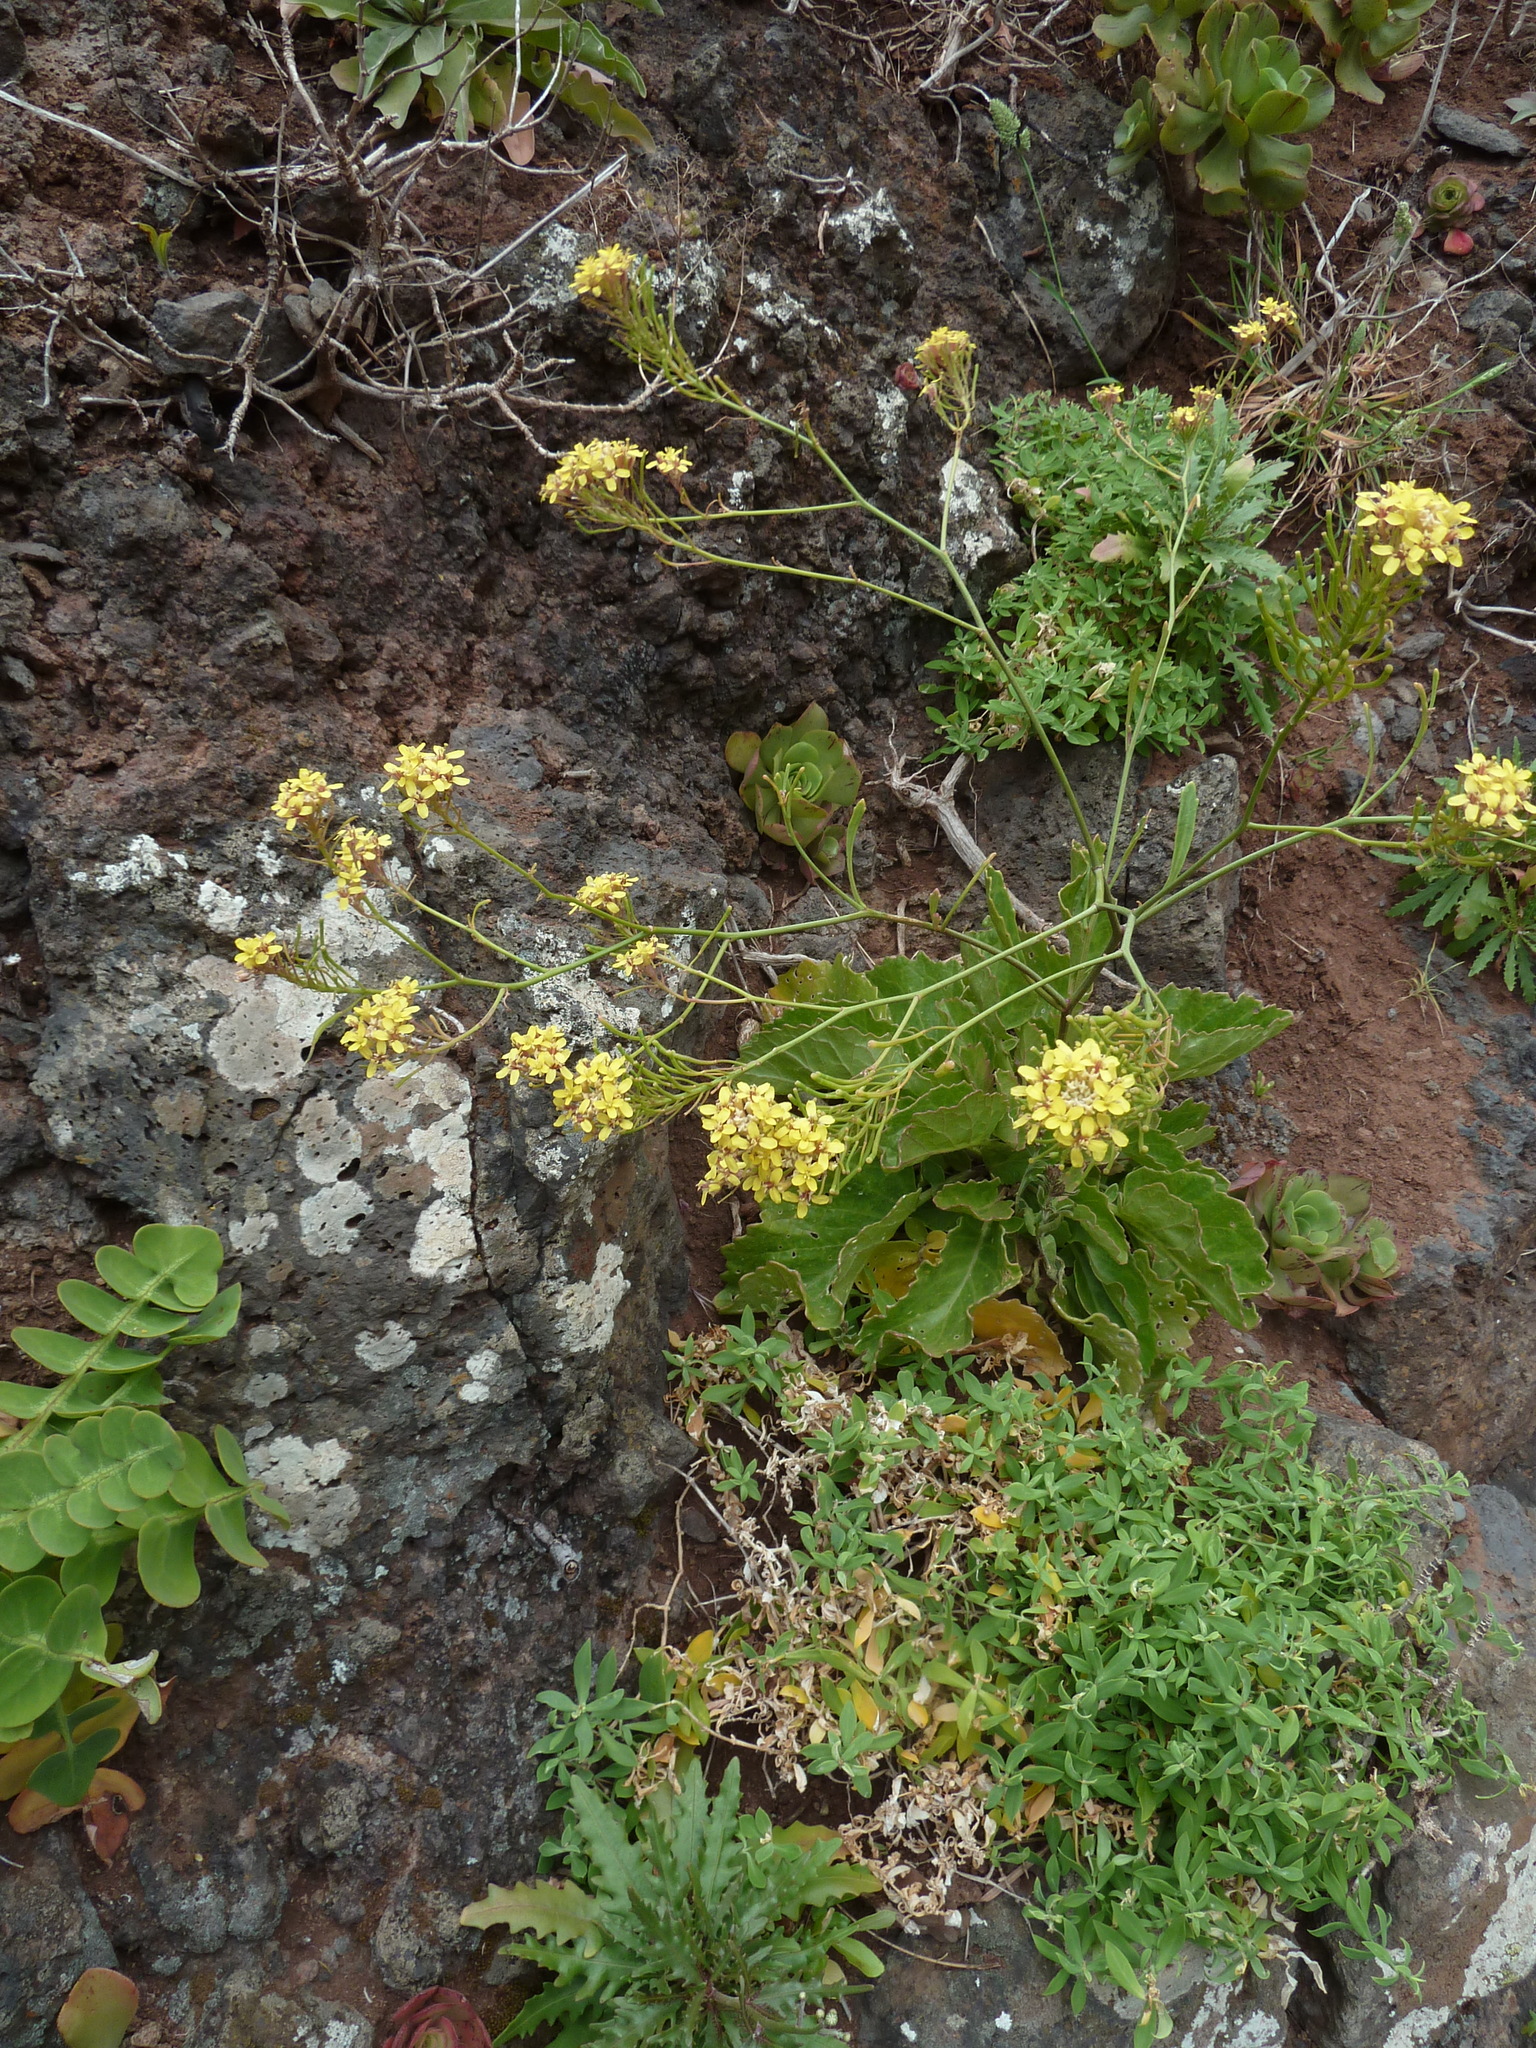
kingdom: Plantae
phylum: Tracheophyta
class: Magnoliopsida
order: Brassicales
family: Brassicaceae
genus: Sinapidendron
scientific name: Sinapidendron rupestre
